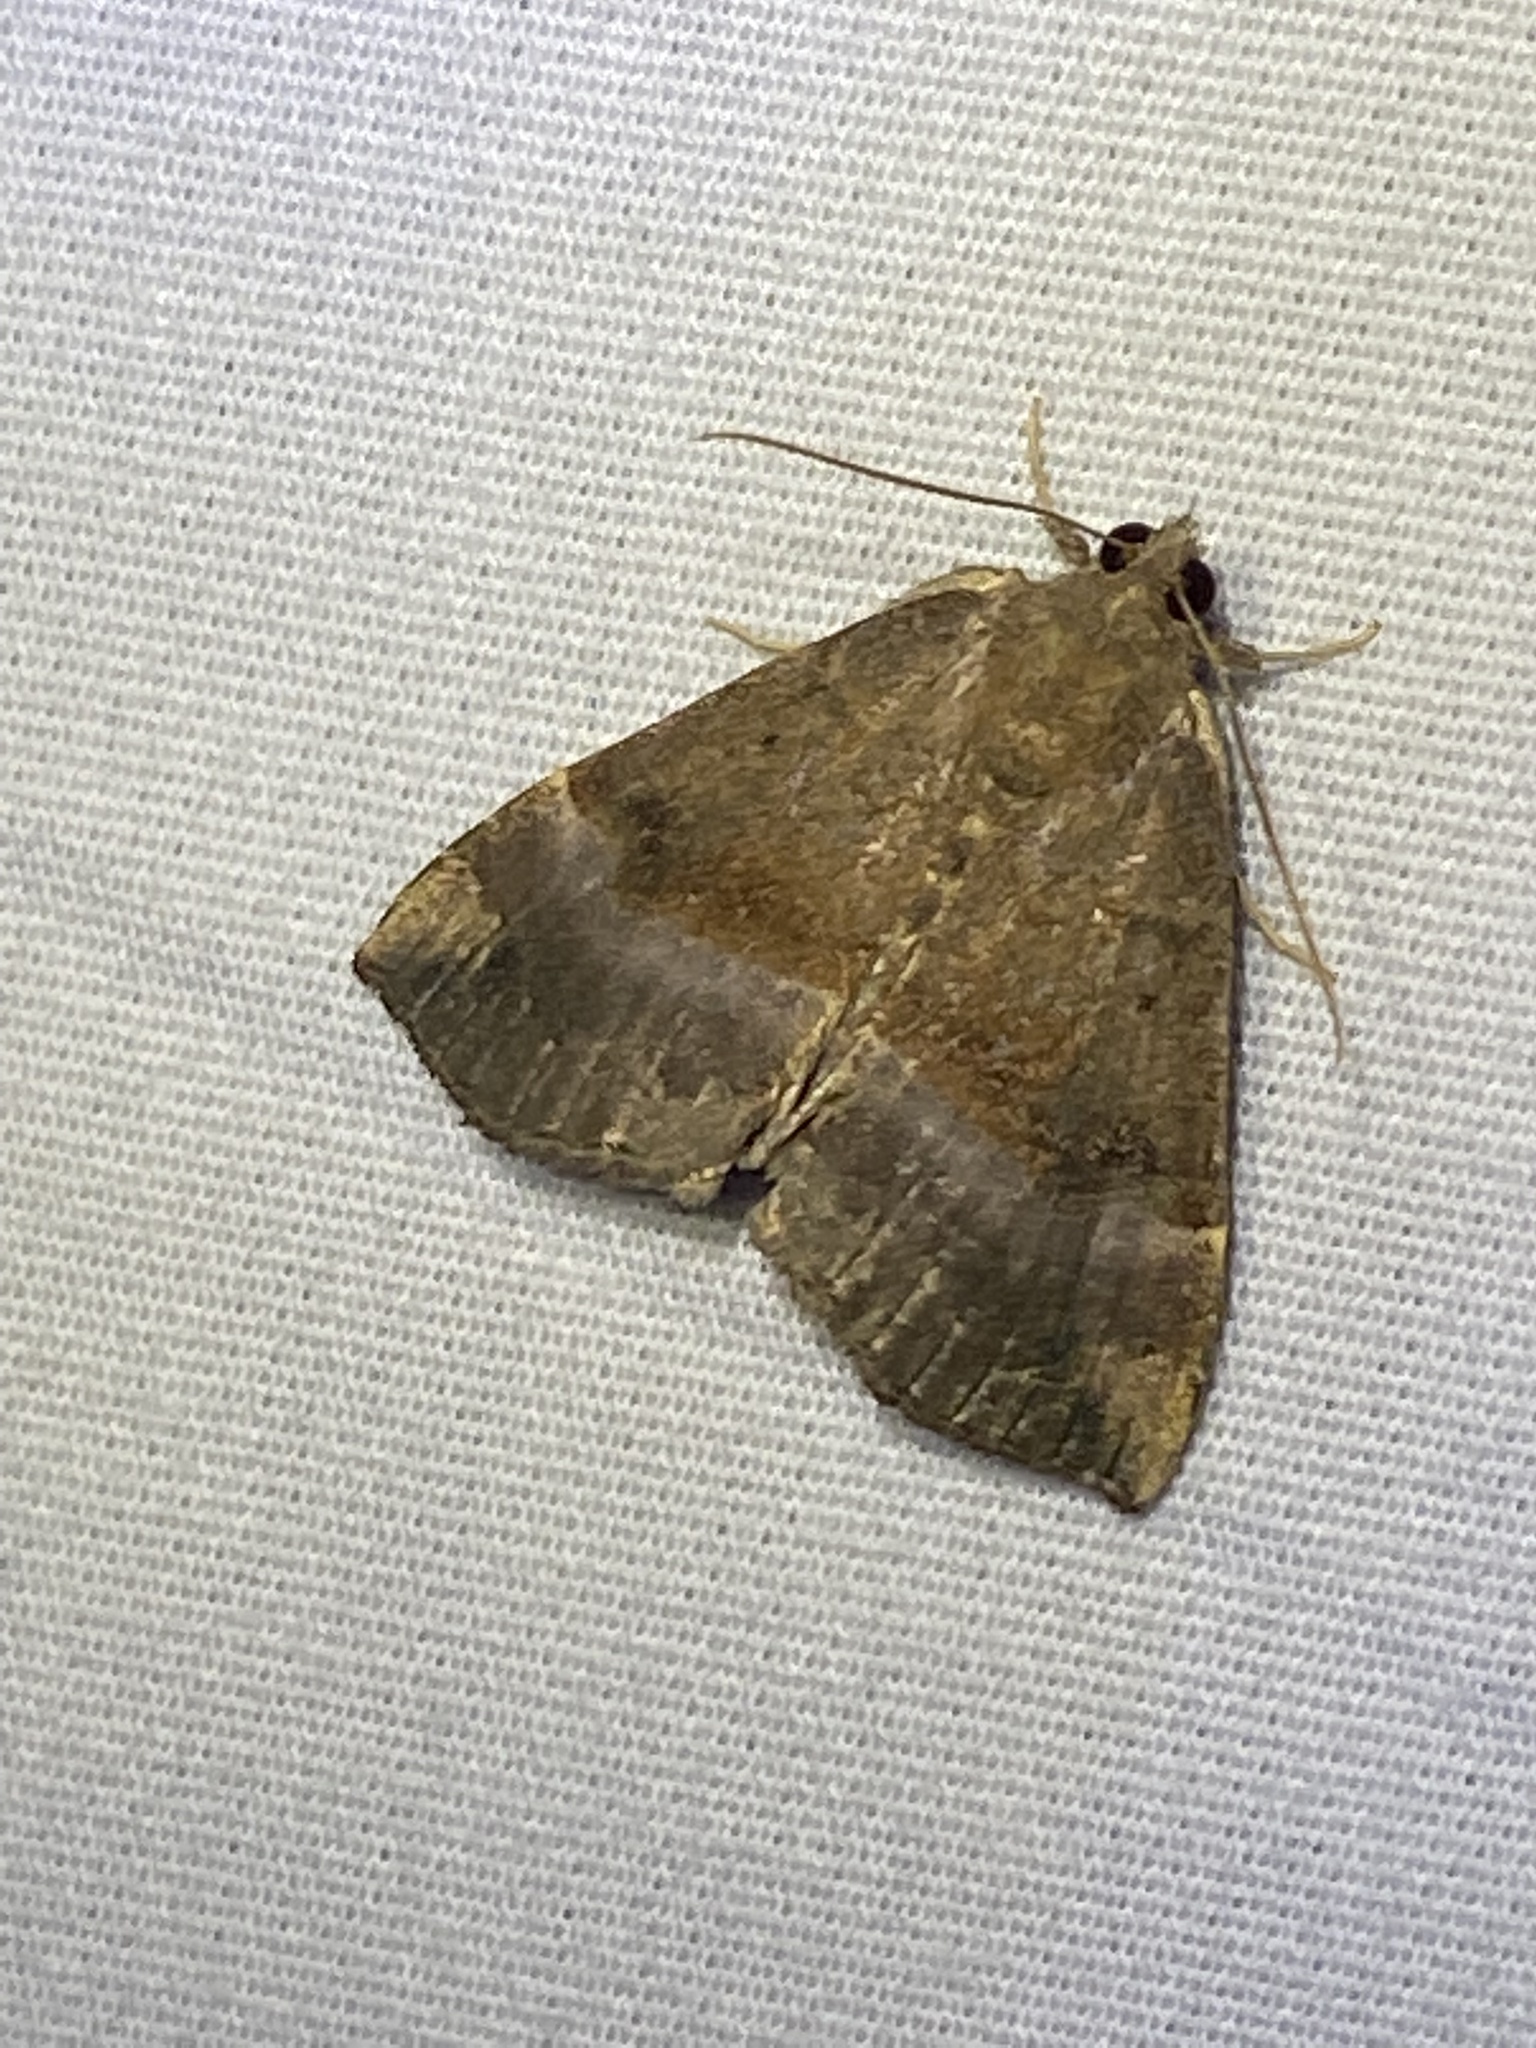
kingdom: Animalia
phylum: Arthropoda
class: Insecta
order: Lepidoptera
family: Erebidae
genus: Hypena
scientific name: Hypena madefactalis
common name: Gray-edged snout
